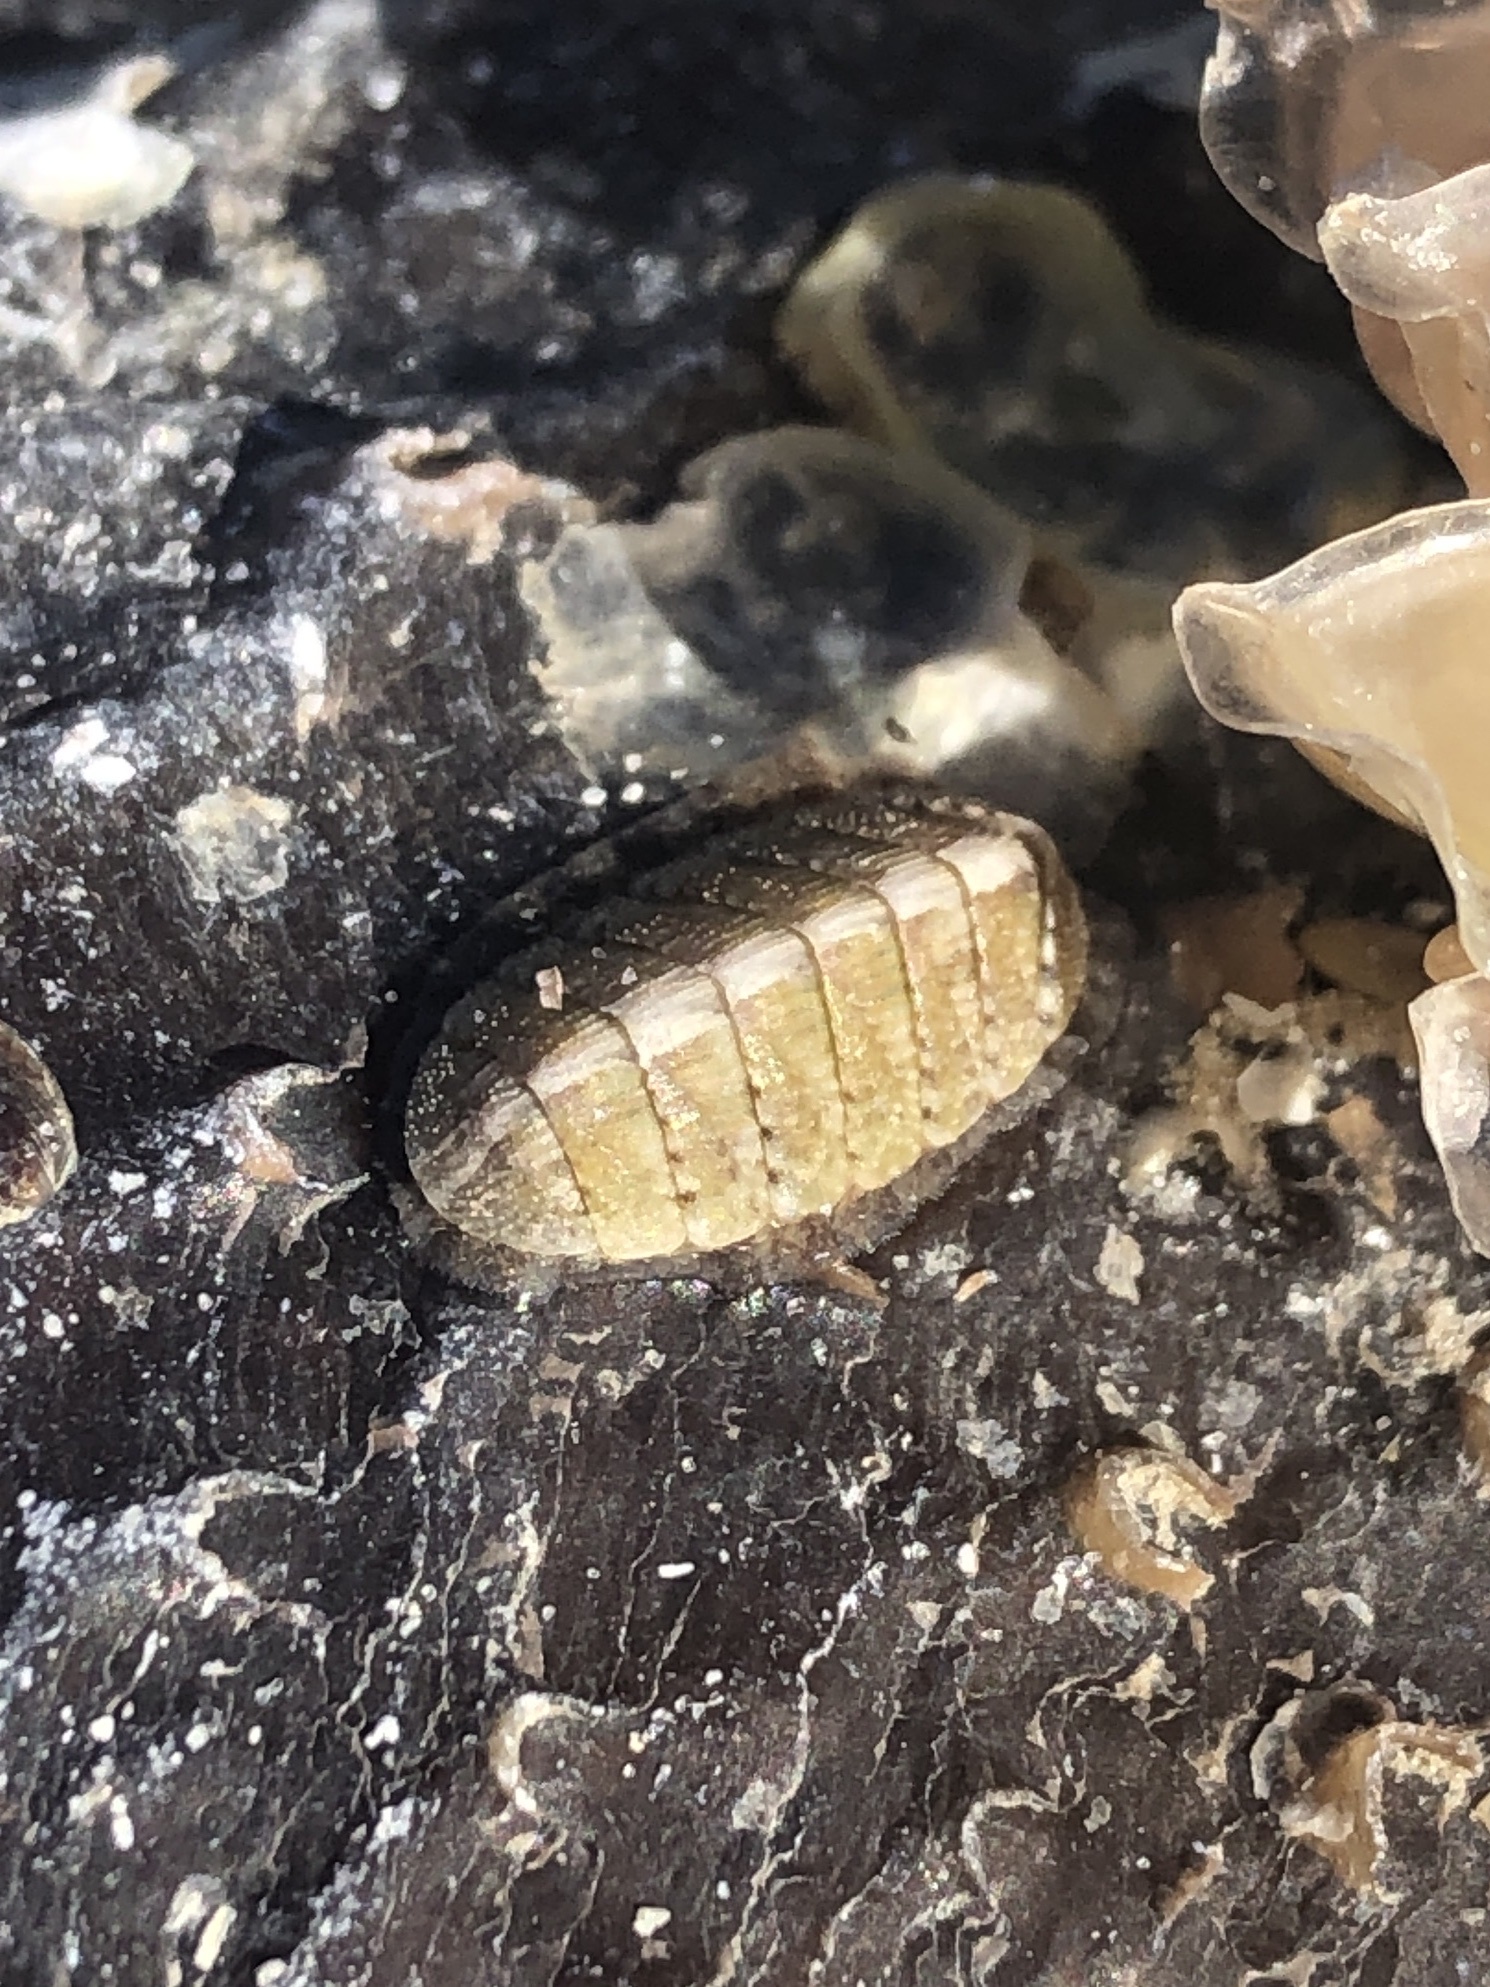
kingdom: Animalia
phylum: Mollusca
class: Polyplacophora
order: Chitonida
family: Chaetopleuridae
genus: Chaetopleura
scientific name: Chaetopleura apiculata
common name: Bee chiton
